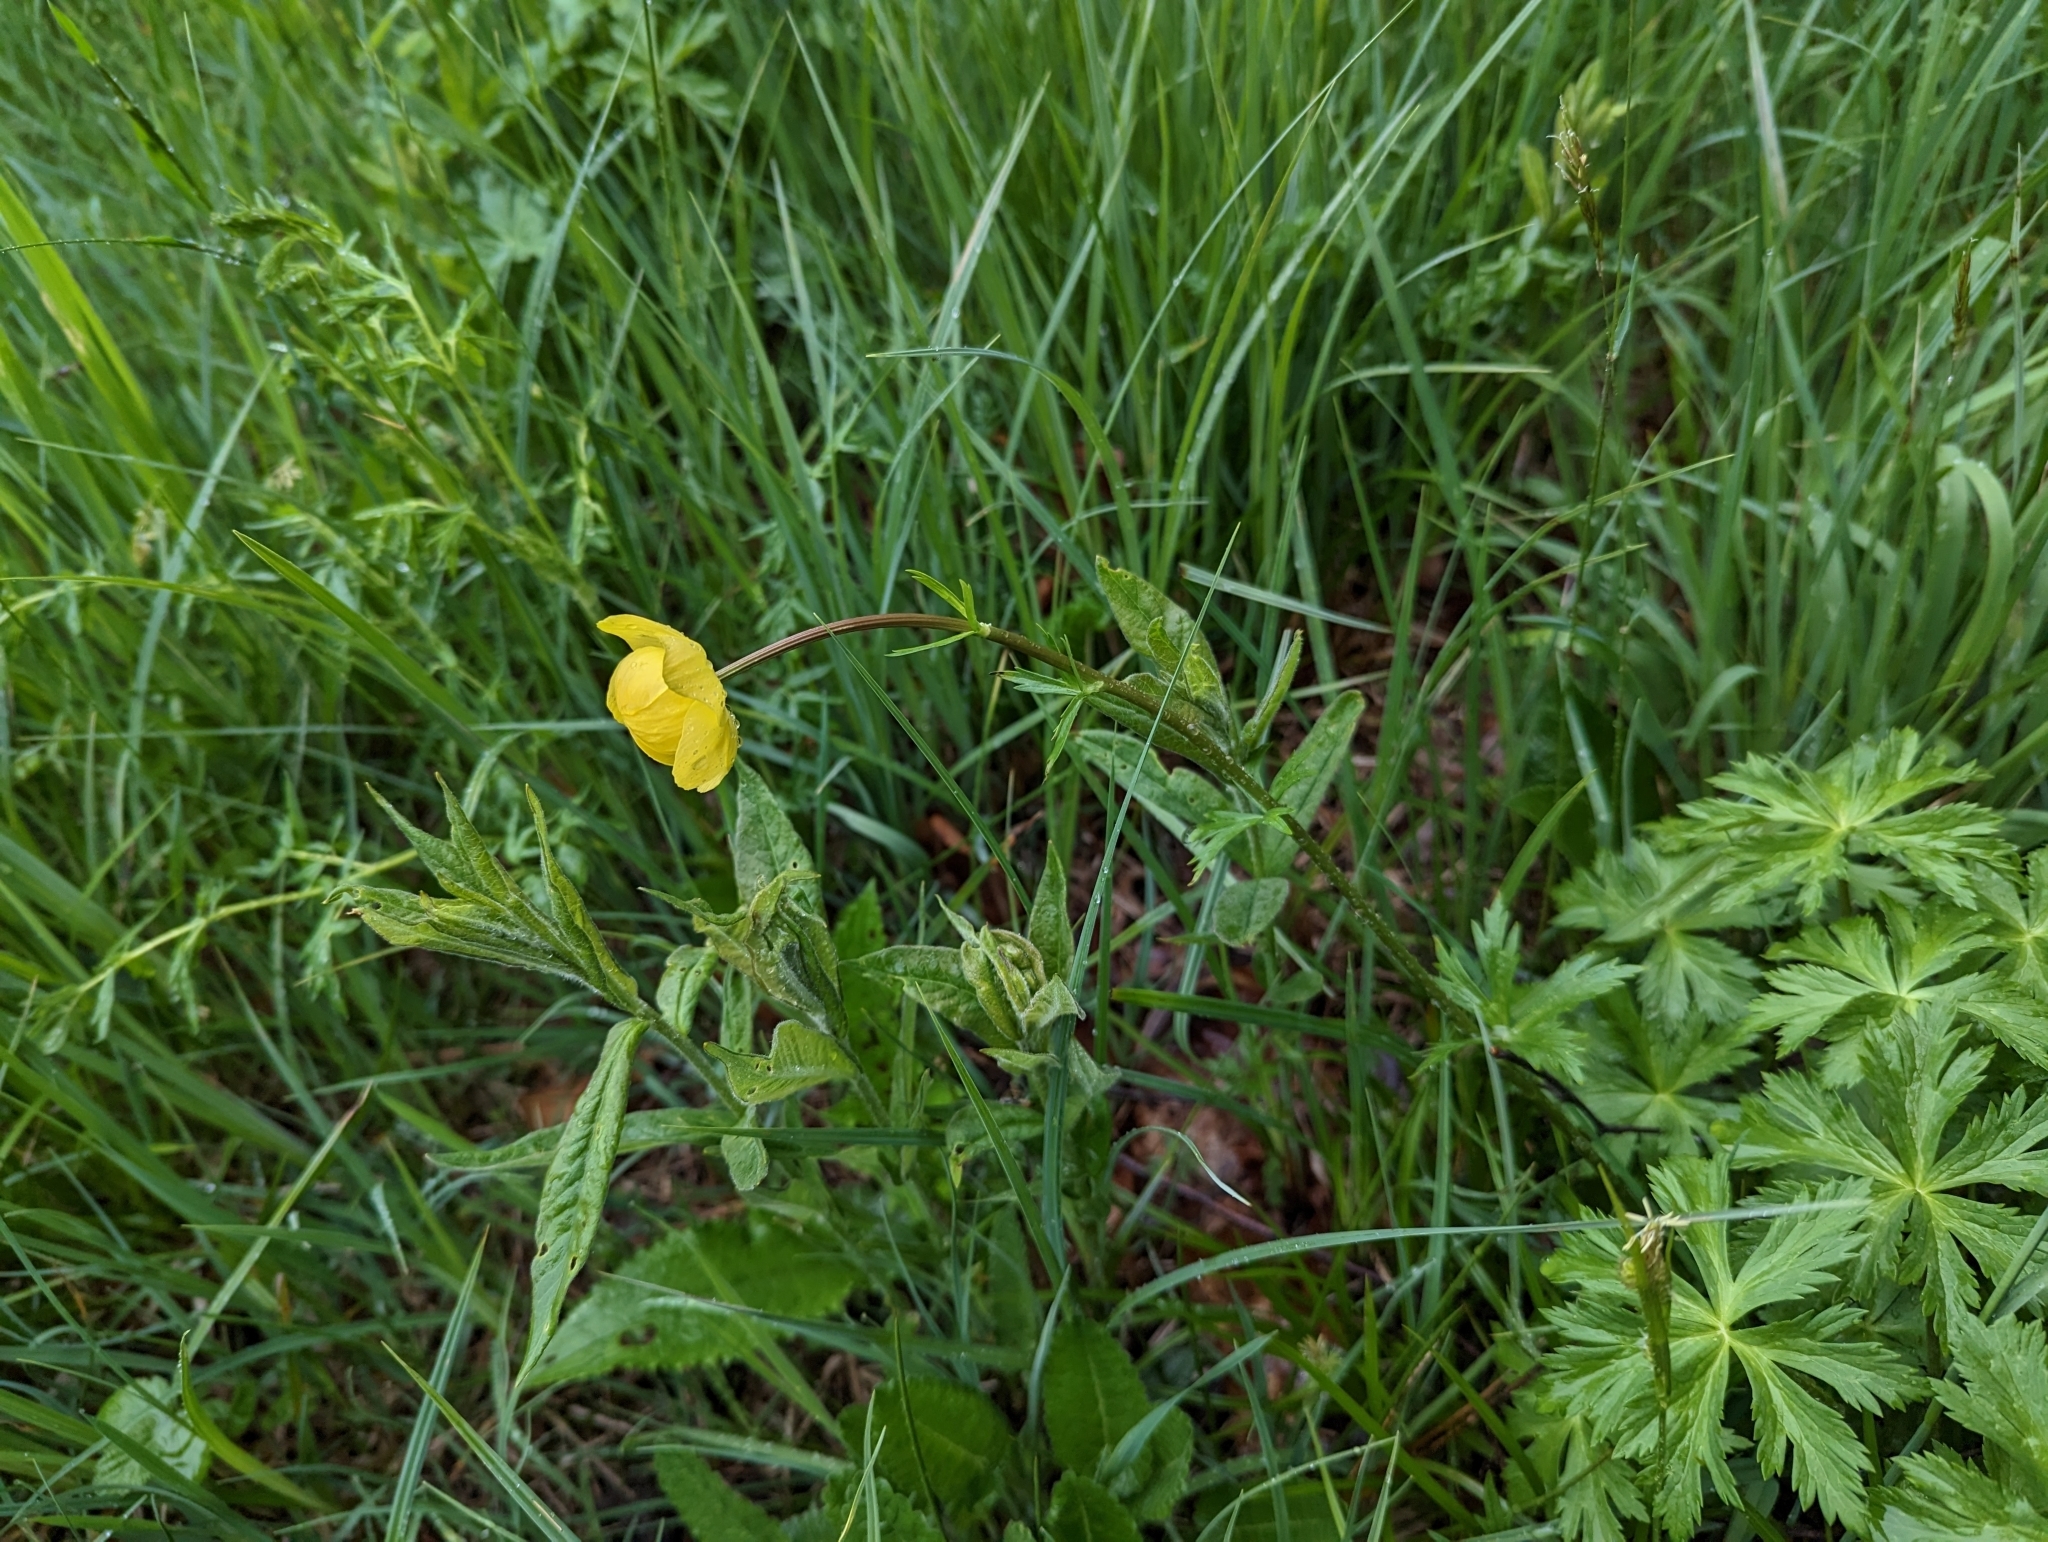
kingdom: Plantae
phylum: Tracheophyta
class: Magnoliopsida
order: Ranunculales
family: Ranunculaceae
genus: Trollius
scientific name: Trollius europaeus
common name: European globeflower
